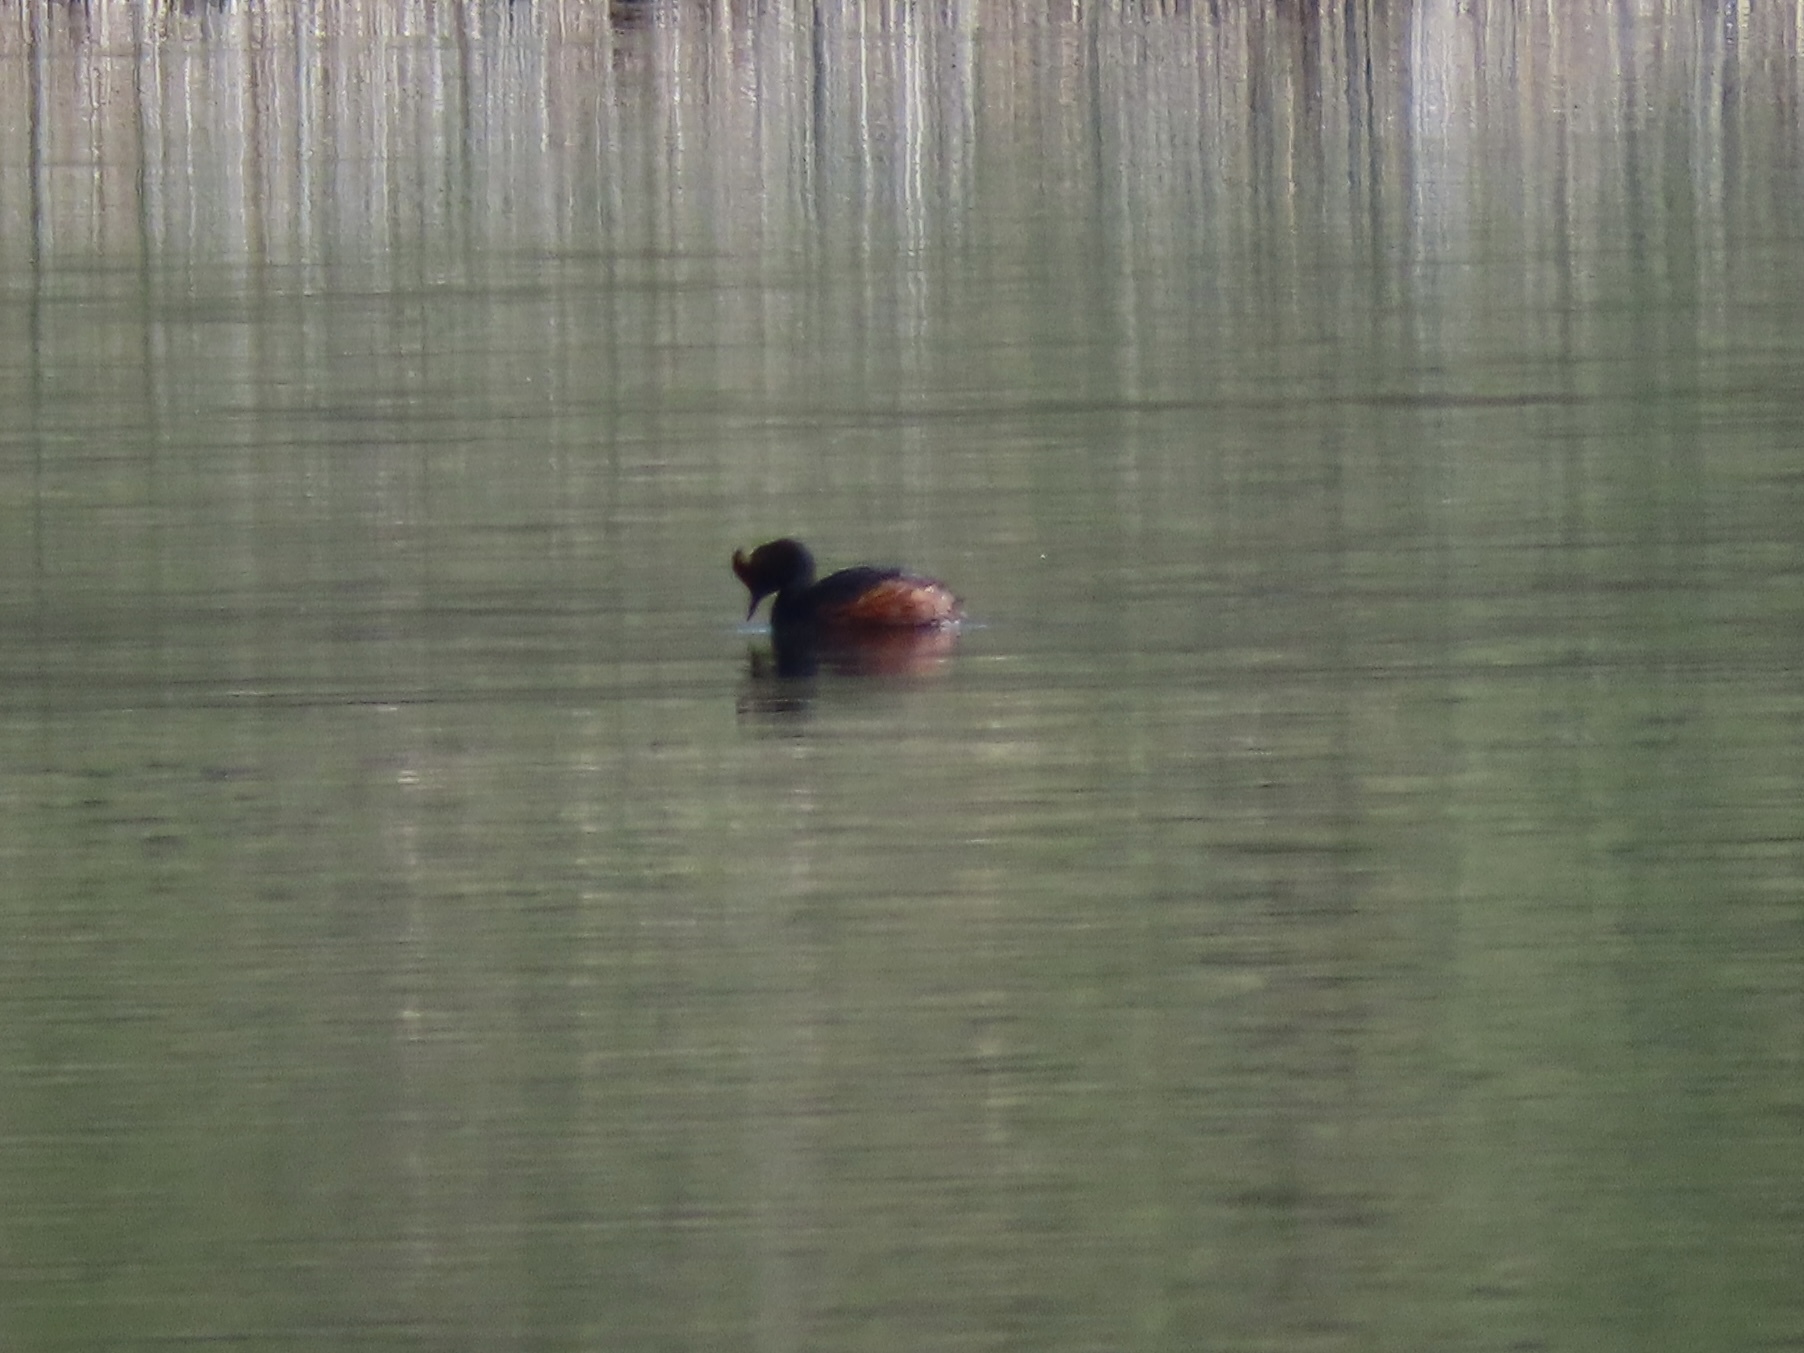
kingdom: Animalia
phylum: Chordata
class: Aves
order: Podicipediformes
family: Podicipedidae
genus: Podiceps
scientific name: Podiceps nigricollis
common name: Black-necked grebe
